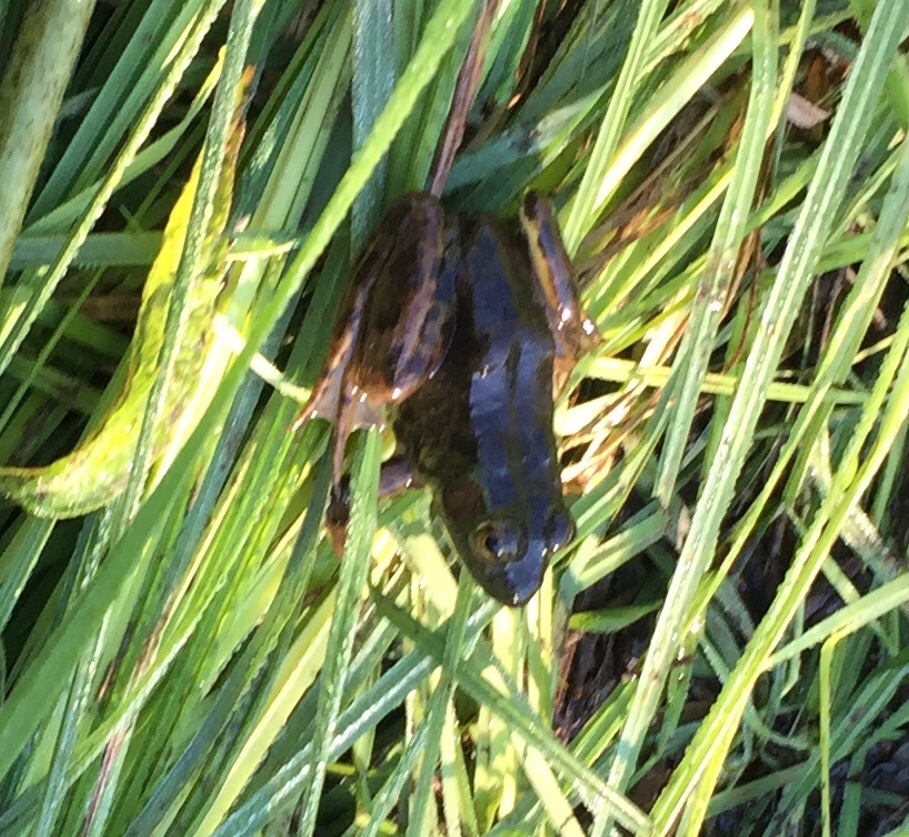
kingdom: Animalia
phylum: Chordata
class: Amphibia
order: Anura
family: Ranidae
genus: Lithobates
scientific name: Lithobates septentrionalis
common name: Mink frog
